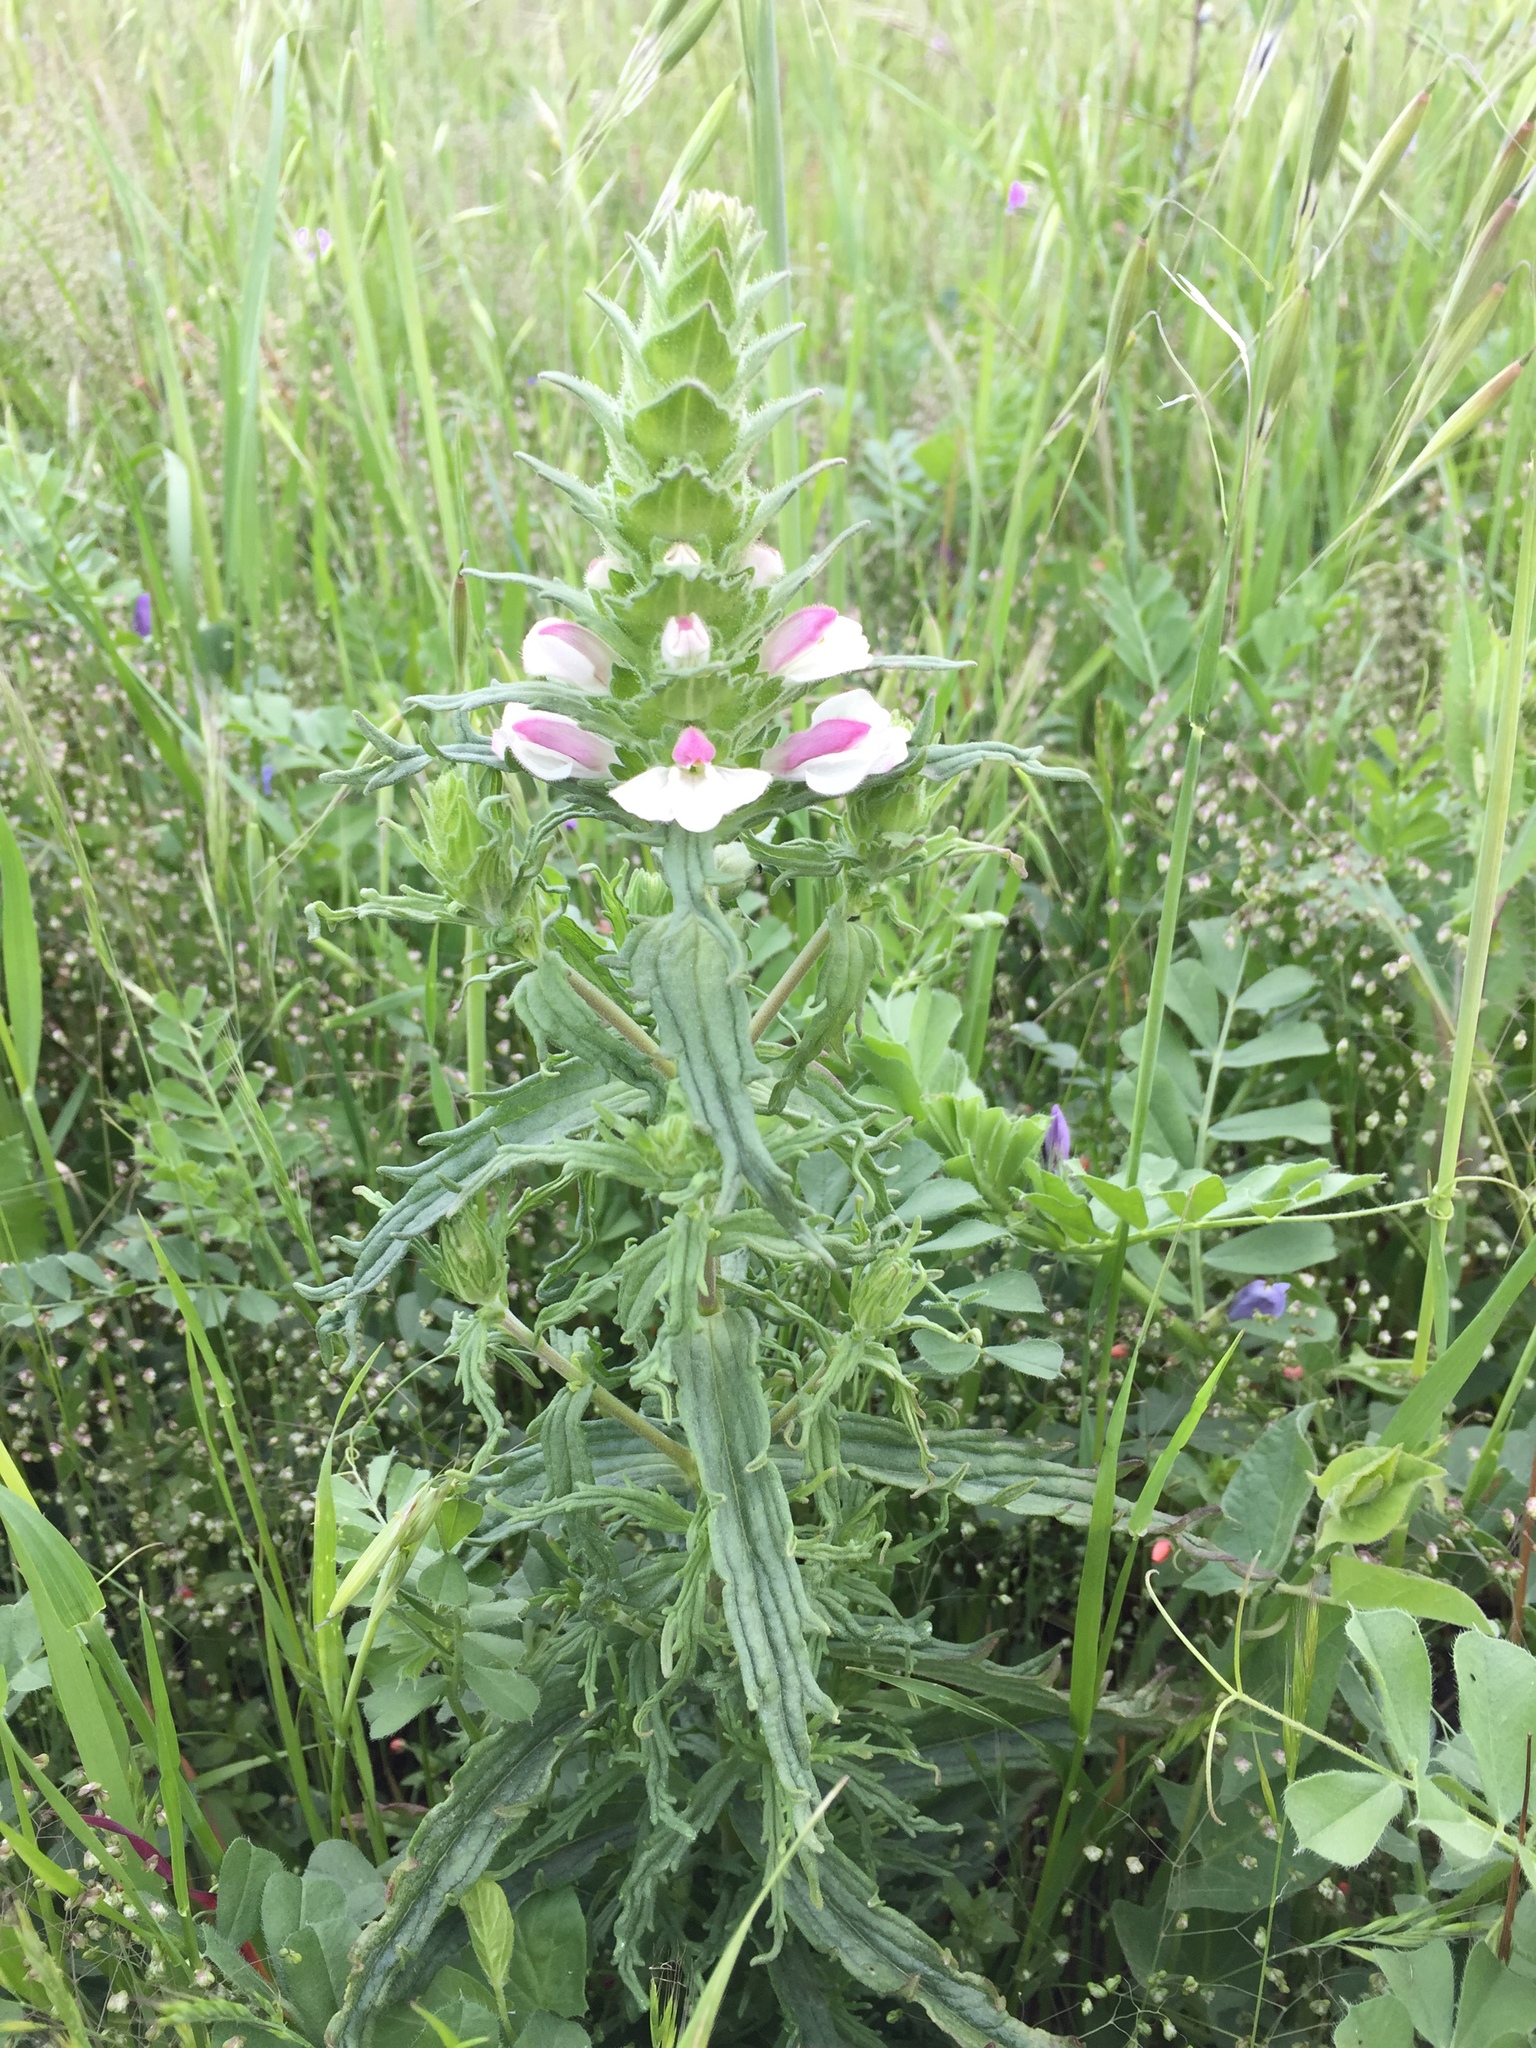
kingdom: Plantae
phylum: Tracheophyta
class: Magnoliopsida
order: Lamiales
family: Orobanchaceae
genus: Bellardia
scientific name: Bellardia trixago
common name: Mediterranean lineseed
